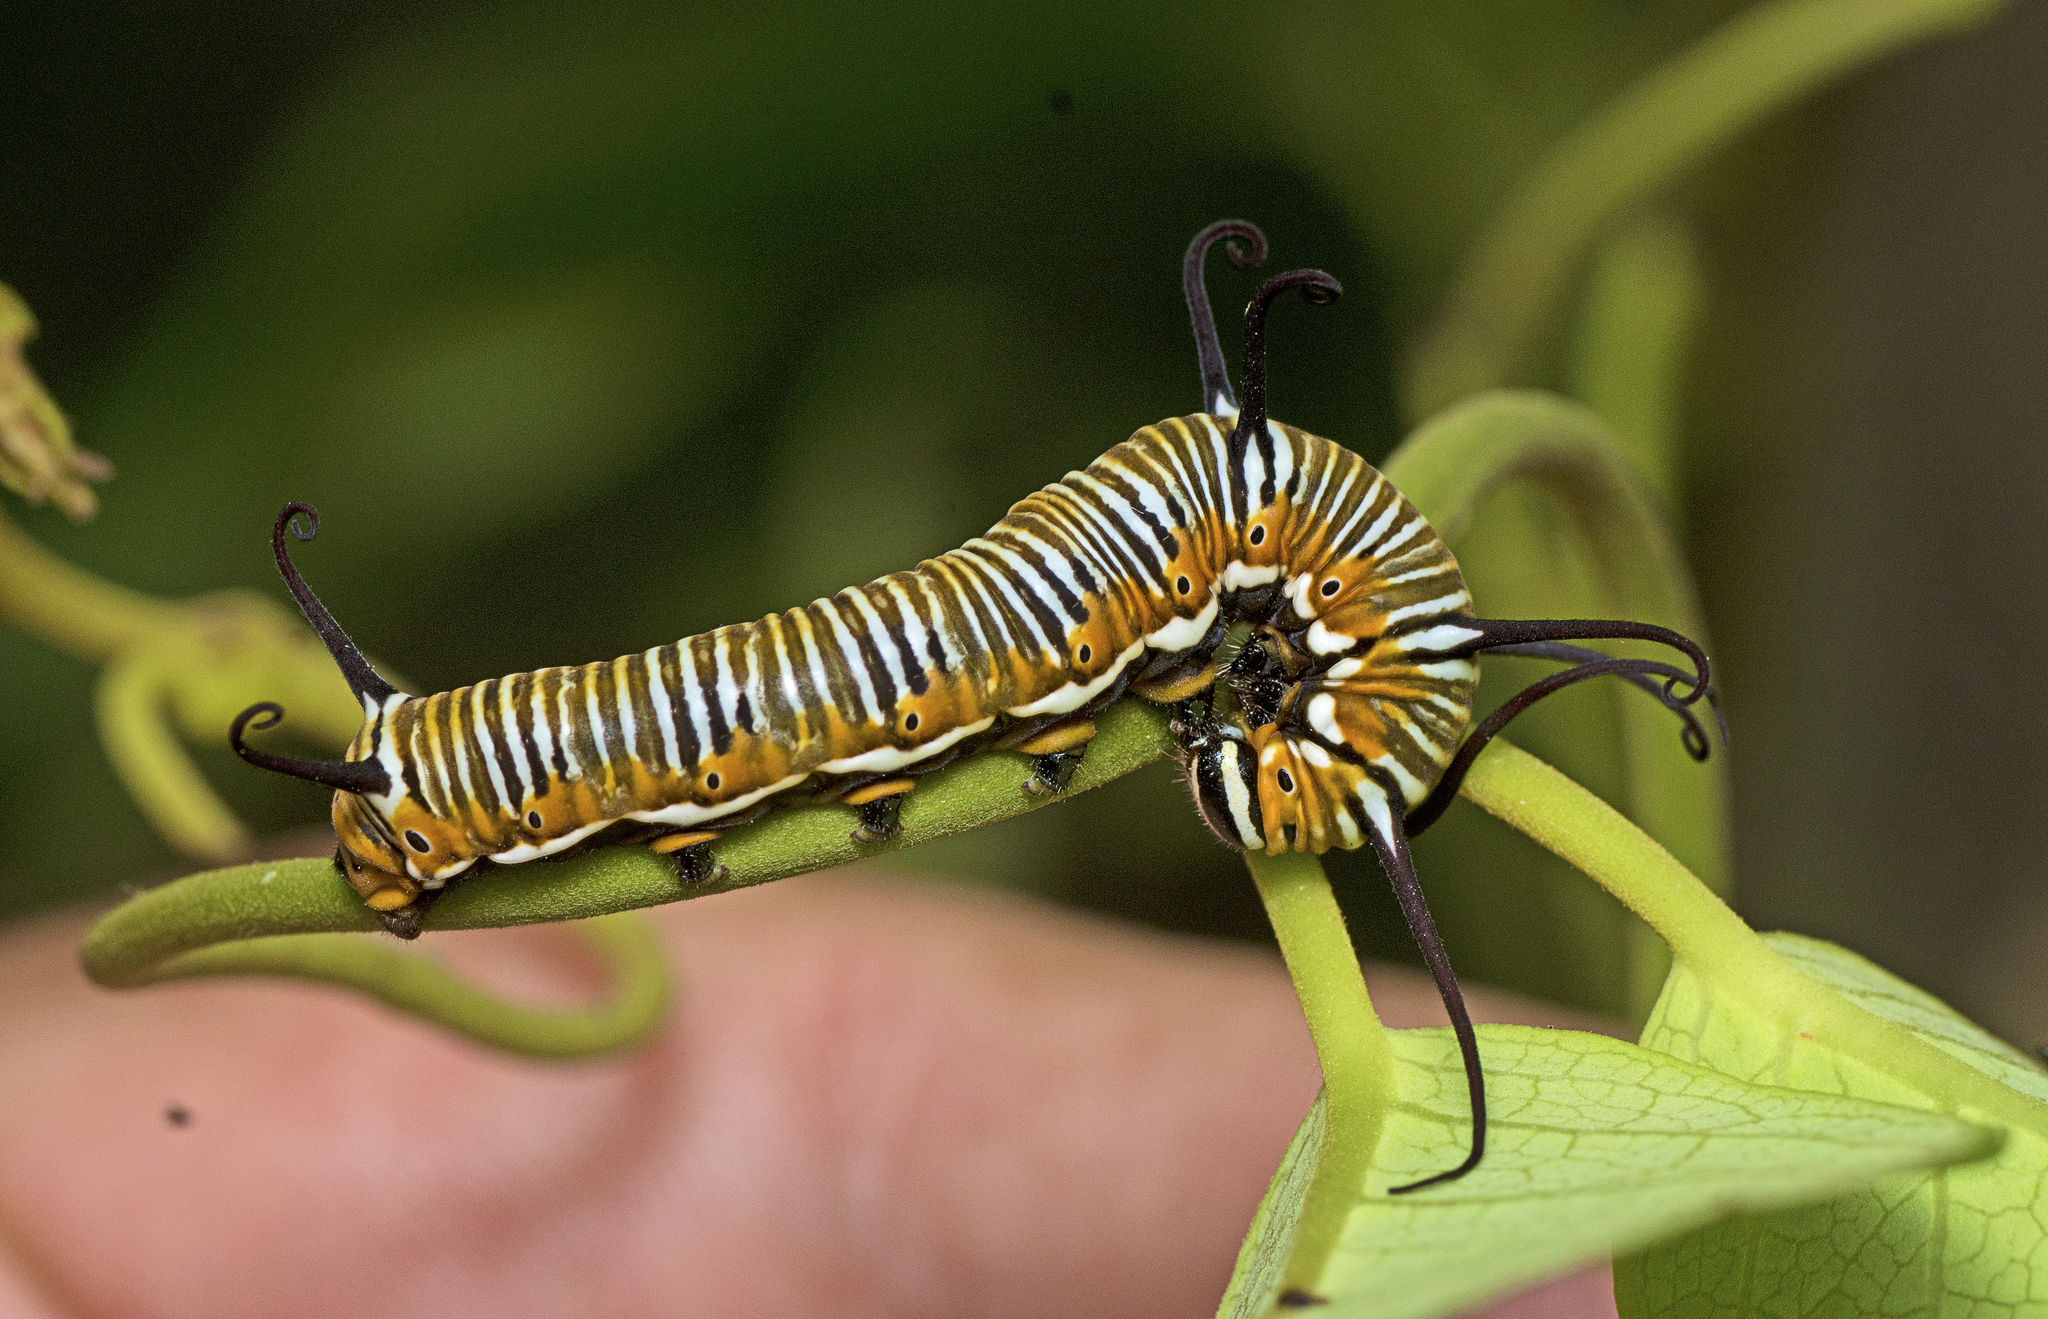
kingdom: Animalia
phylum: Arthropoda
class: Insecta
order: Lepidoptera
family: Nymphalidae
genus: Euploea
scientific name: Euploea core
